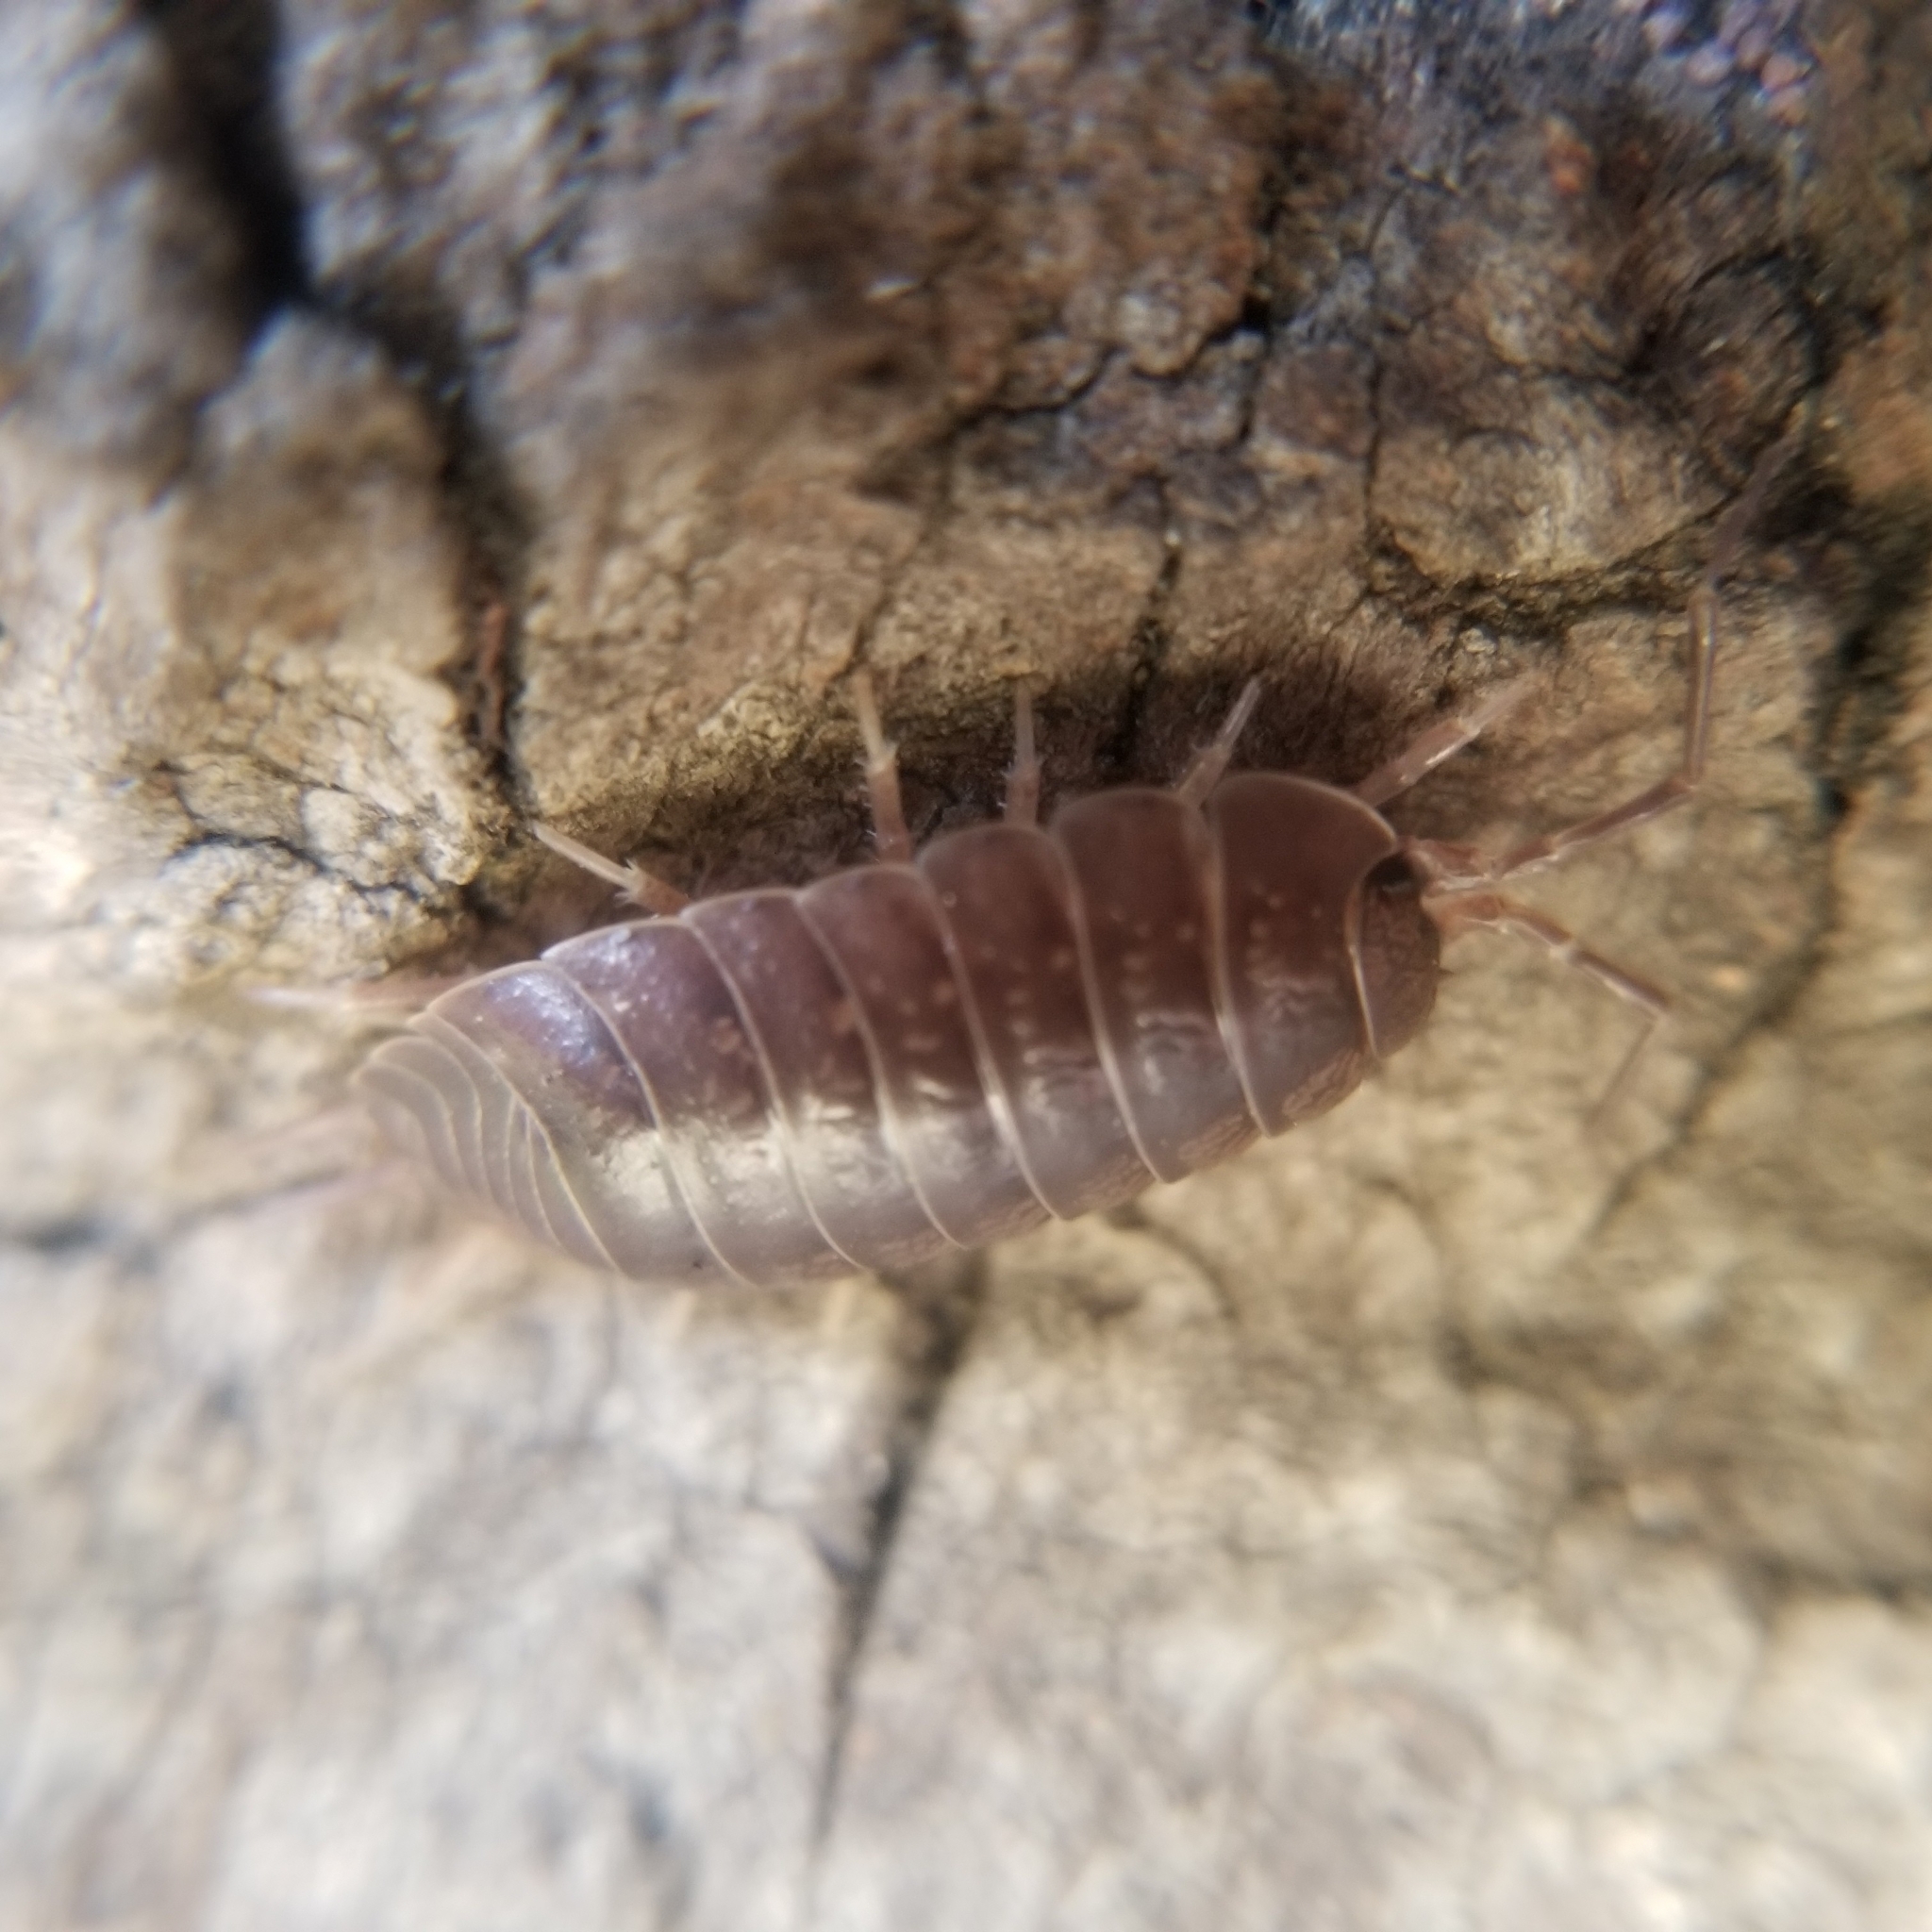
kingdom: Animalia
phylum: Arthropoda
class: Malacostraca
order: Isopoda
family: Porcellionidae
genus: Porcellio
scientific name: Porcellio laevis
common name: Swift woodlouse
